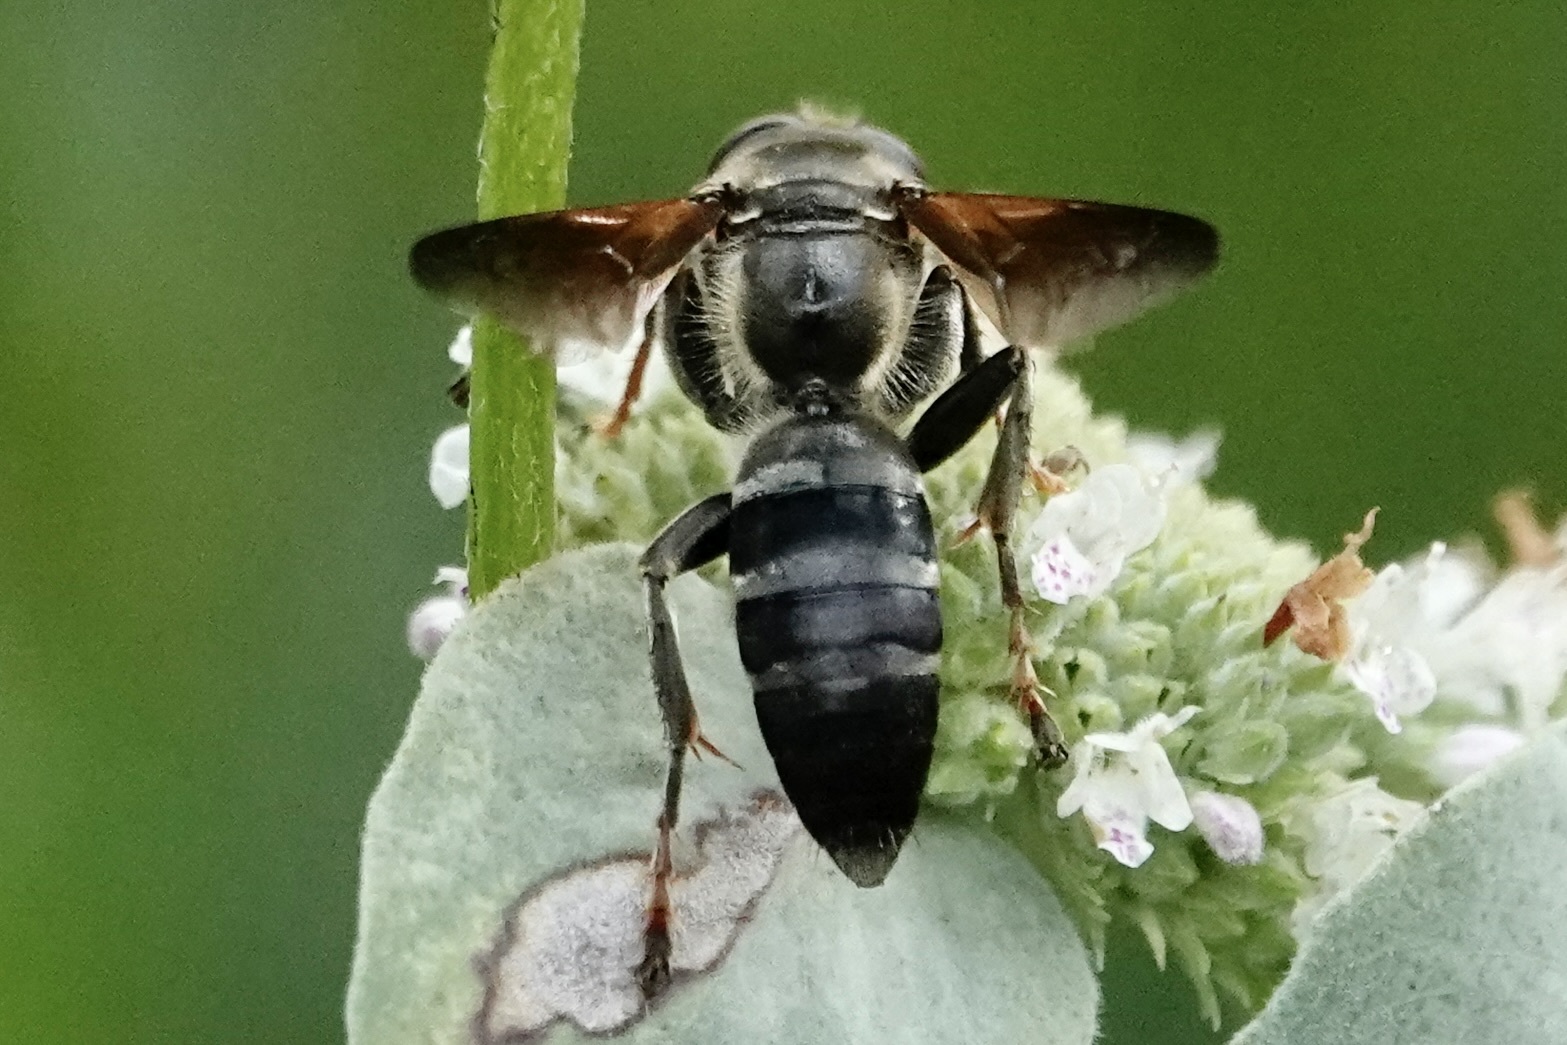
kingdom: Animalia
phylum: Arthropoda
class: Insecta
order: Hymenoptera
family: Crabronidae
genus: Tachytes
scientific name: Tachytes guatemalensis
